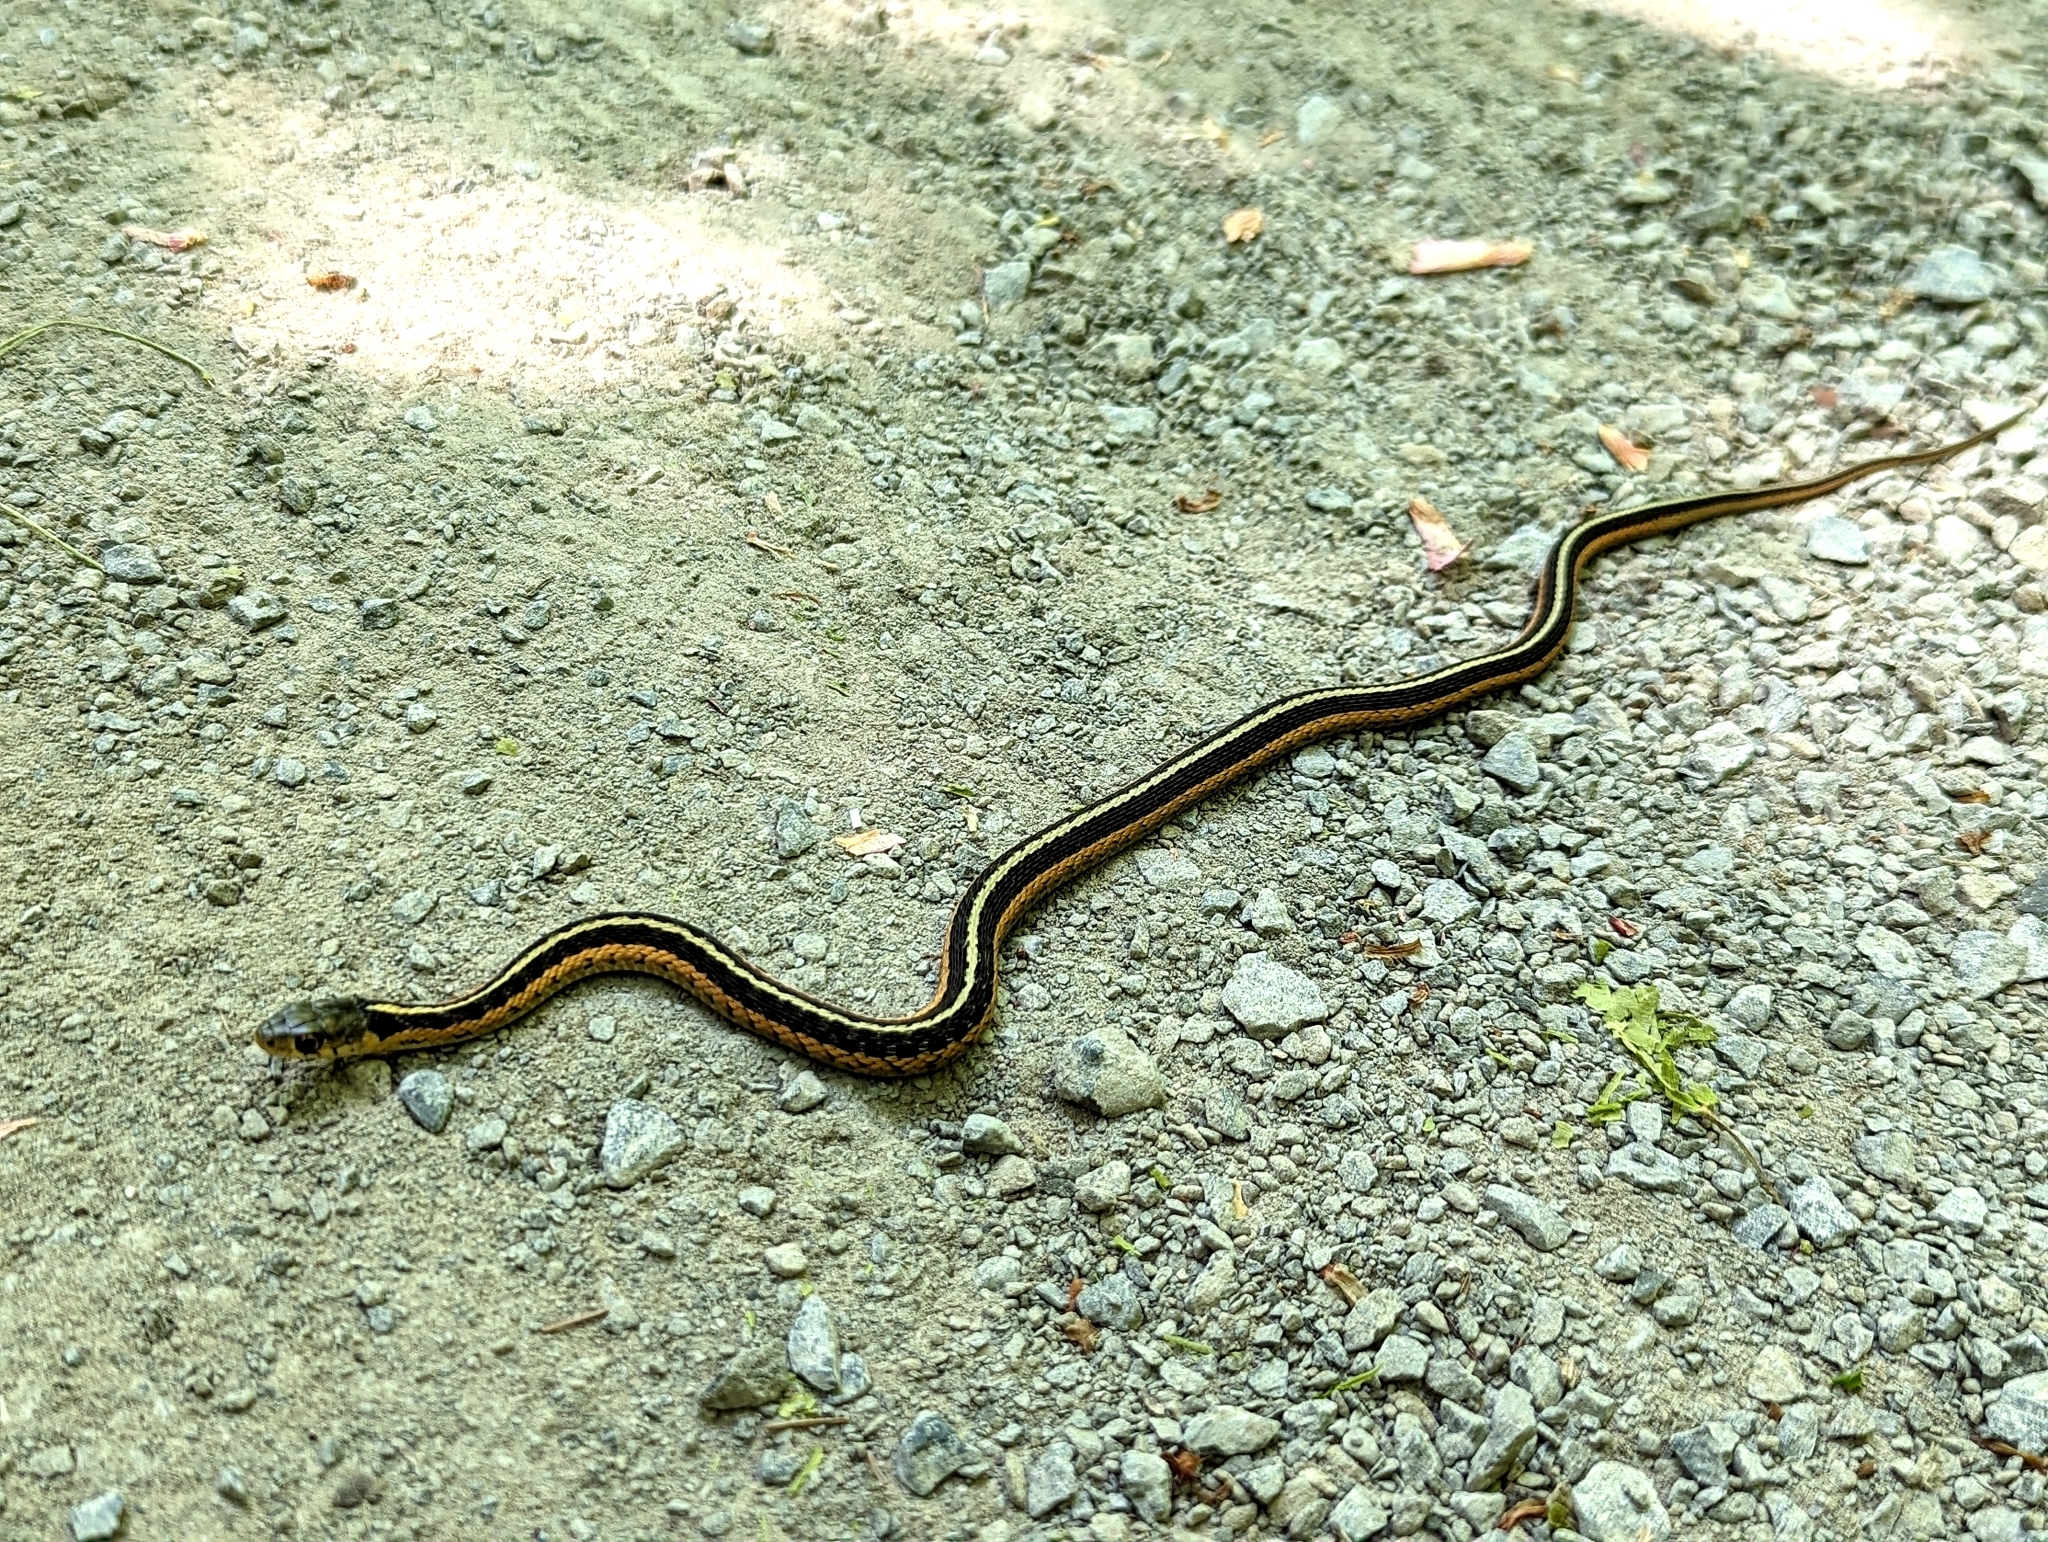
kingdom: Animalia
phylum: Chordata
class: Squamata
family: Colubridae
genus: Thamnophis
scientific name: Thamnophis sirtalis
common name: Common garter snake
